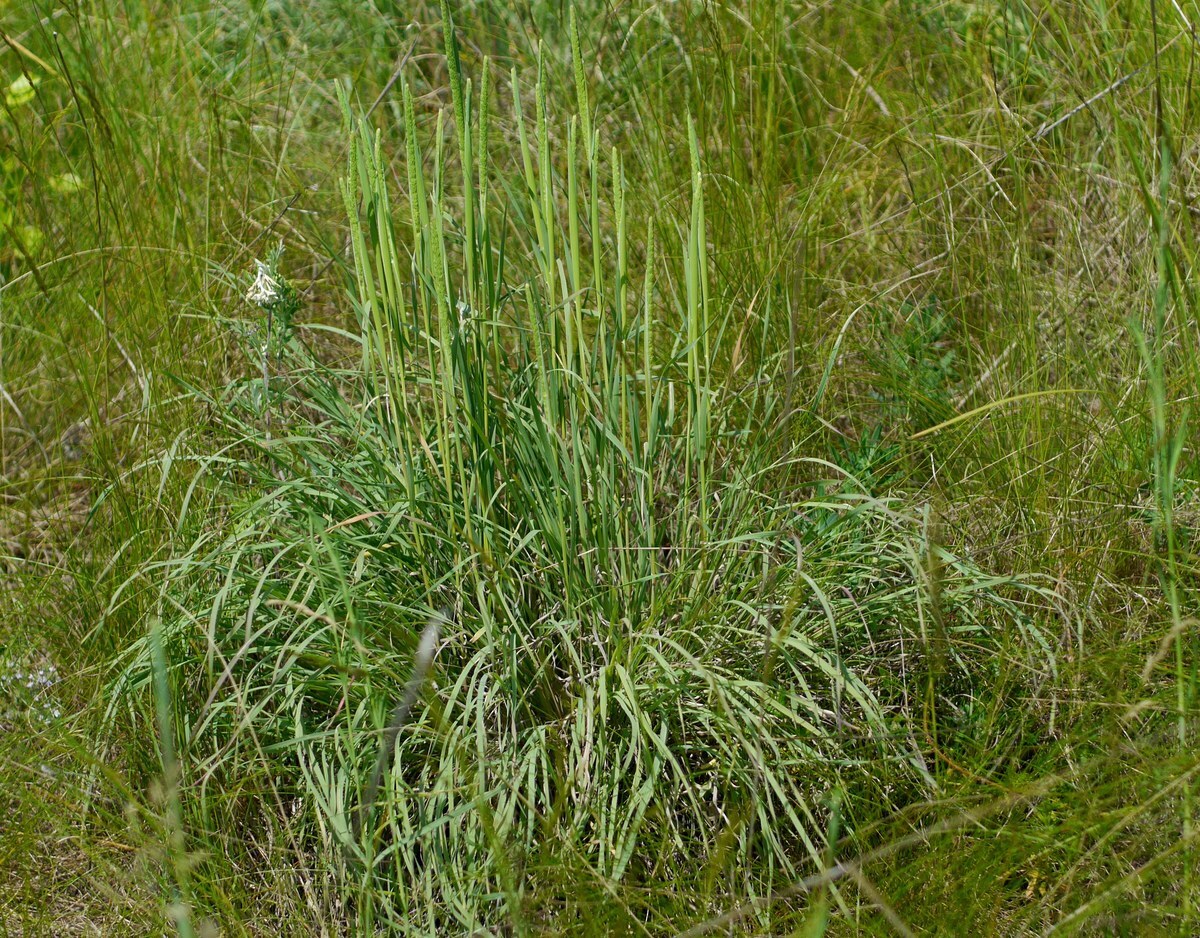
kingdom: Plantae
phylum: Tracheophyta
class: Liliopsida
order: Poales
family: Poaceae
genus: Phleum
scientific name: Phleum phleoides
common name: Purple-stem cat's-tail
